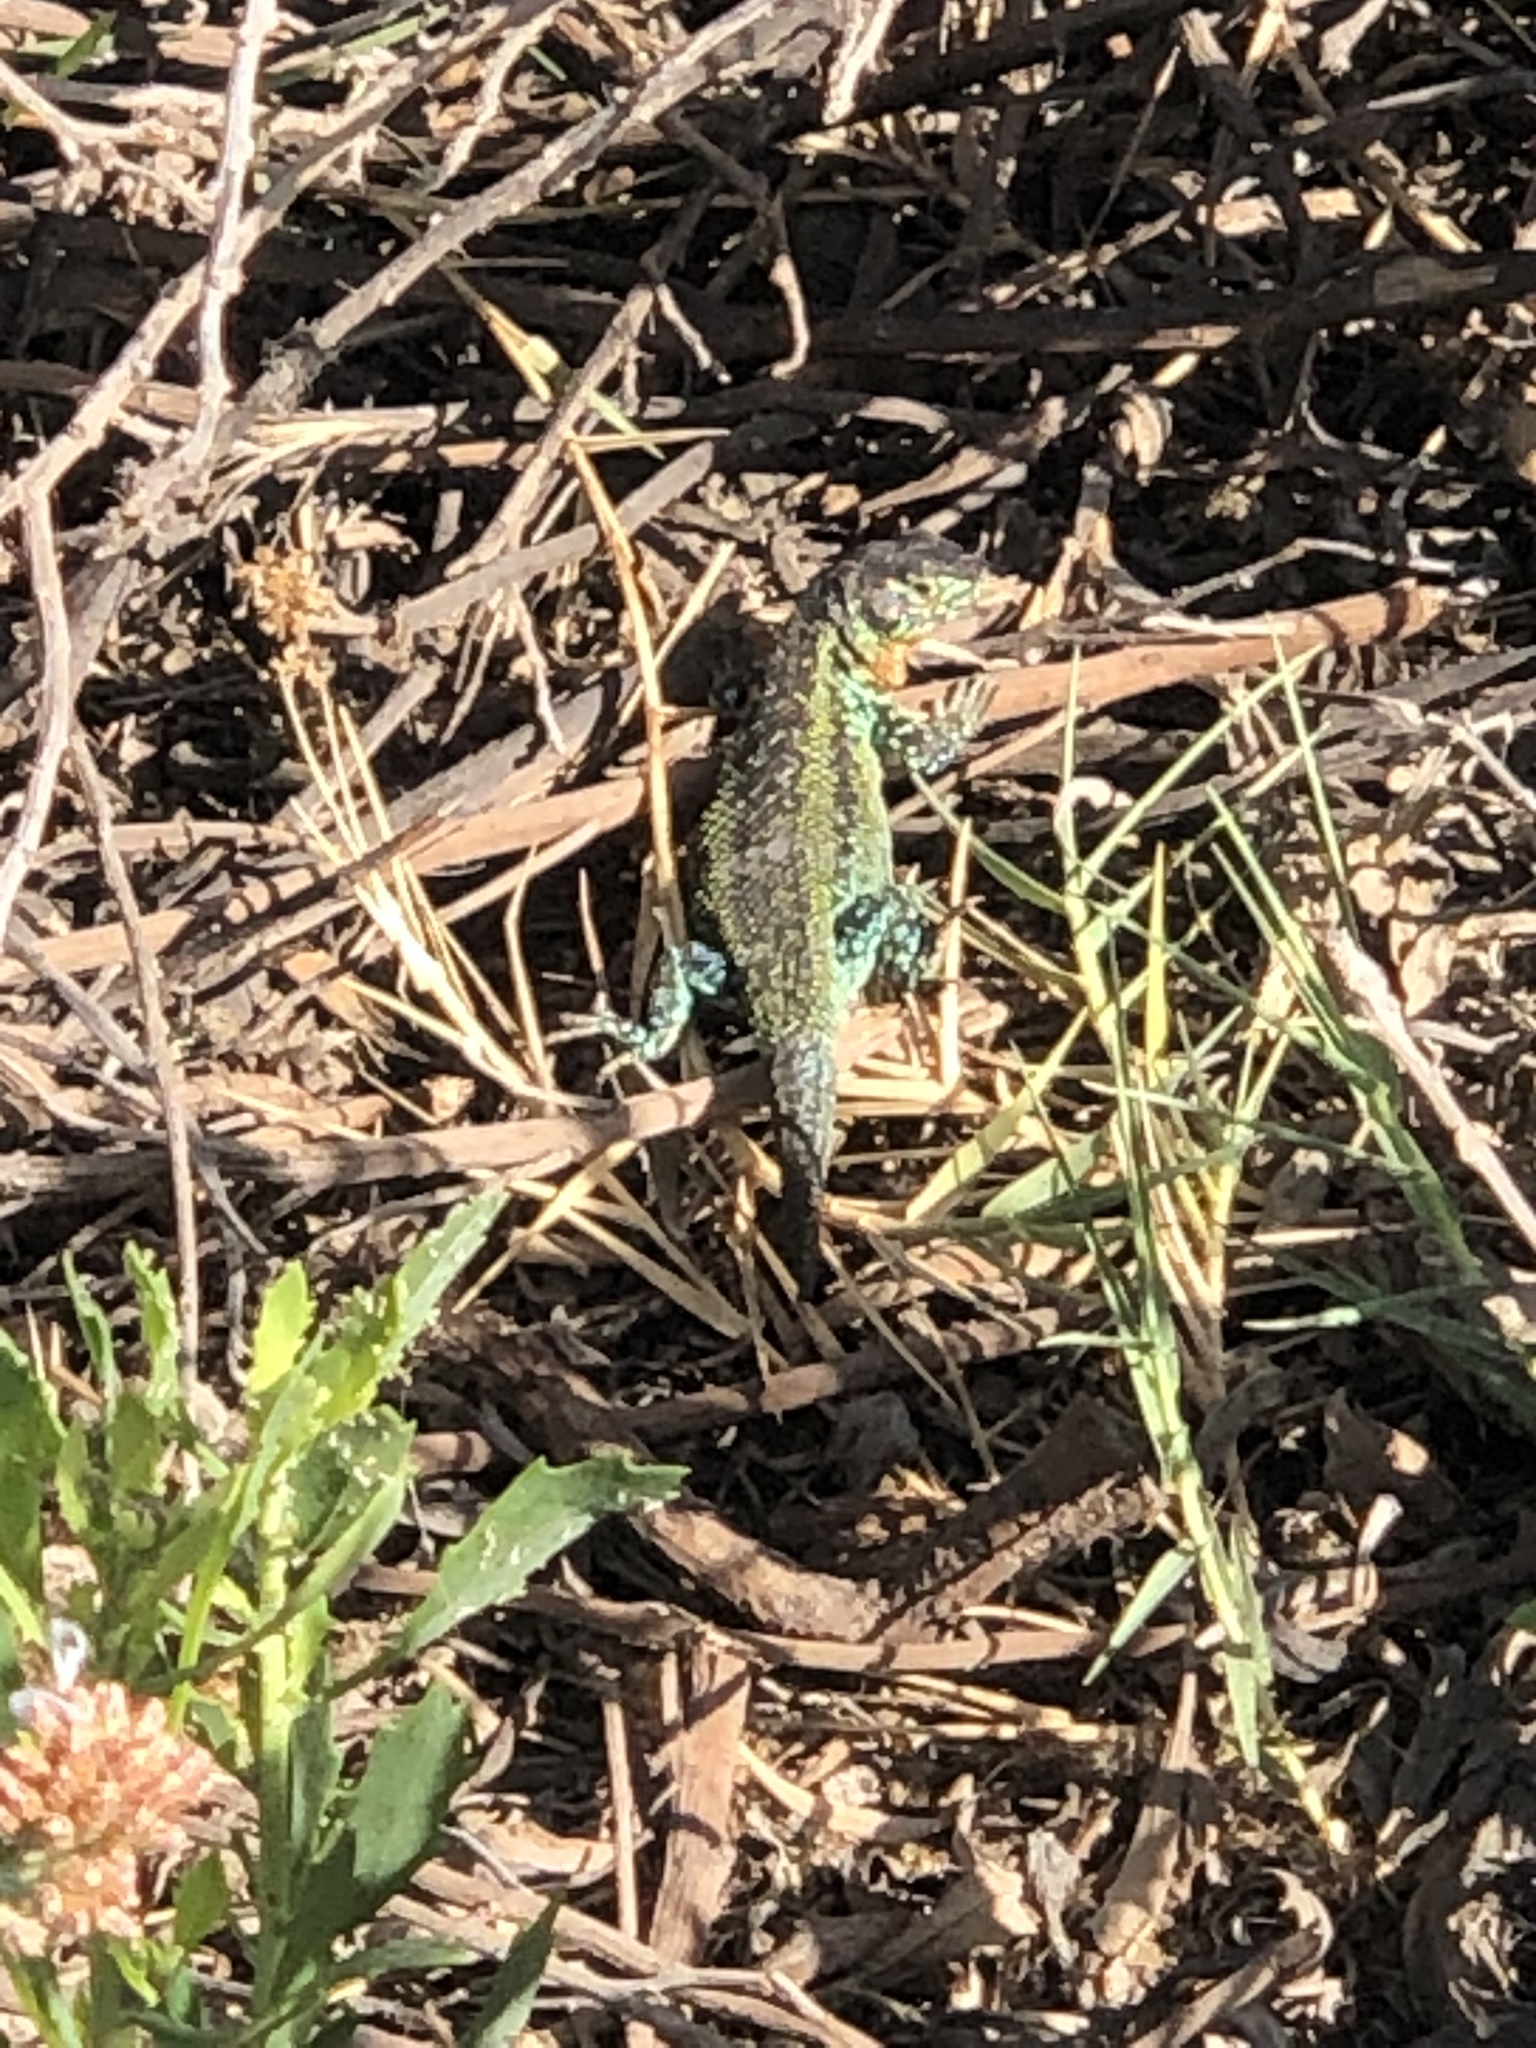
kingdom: Animalia
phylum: Chordata
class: Squamata
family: Liolaemidae
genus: Liolaemus
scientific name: Liolaemus zapallarensis
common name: Zapallaren tree iguana
